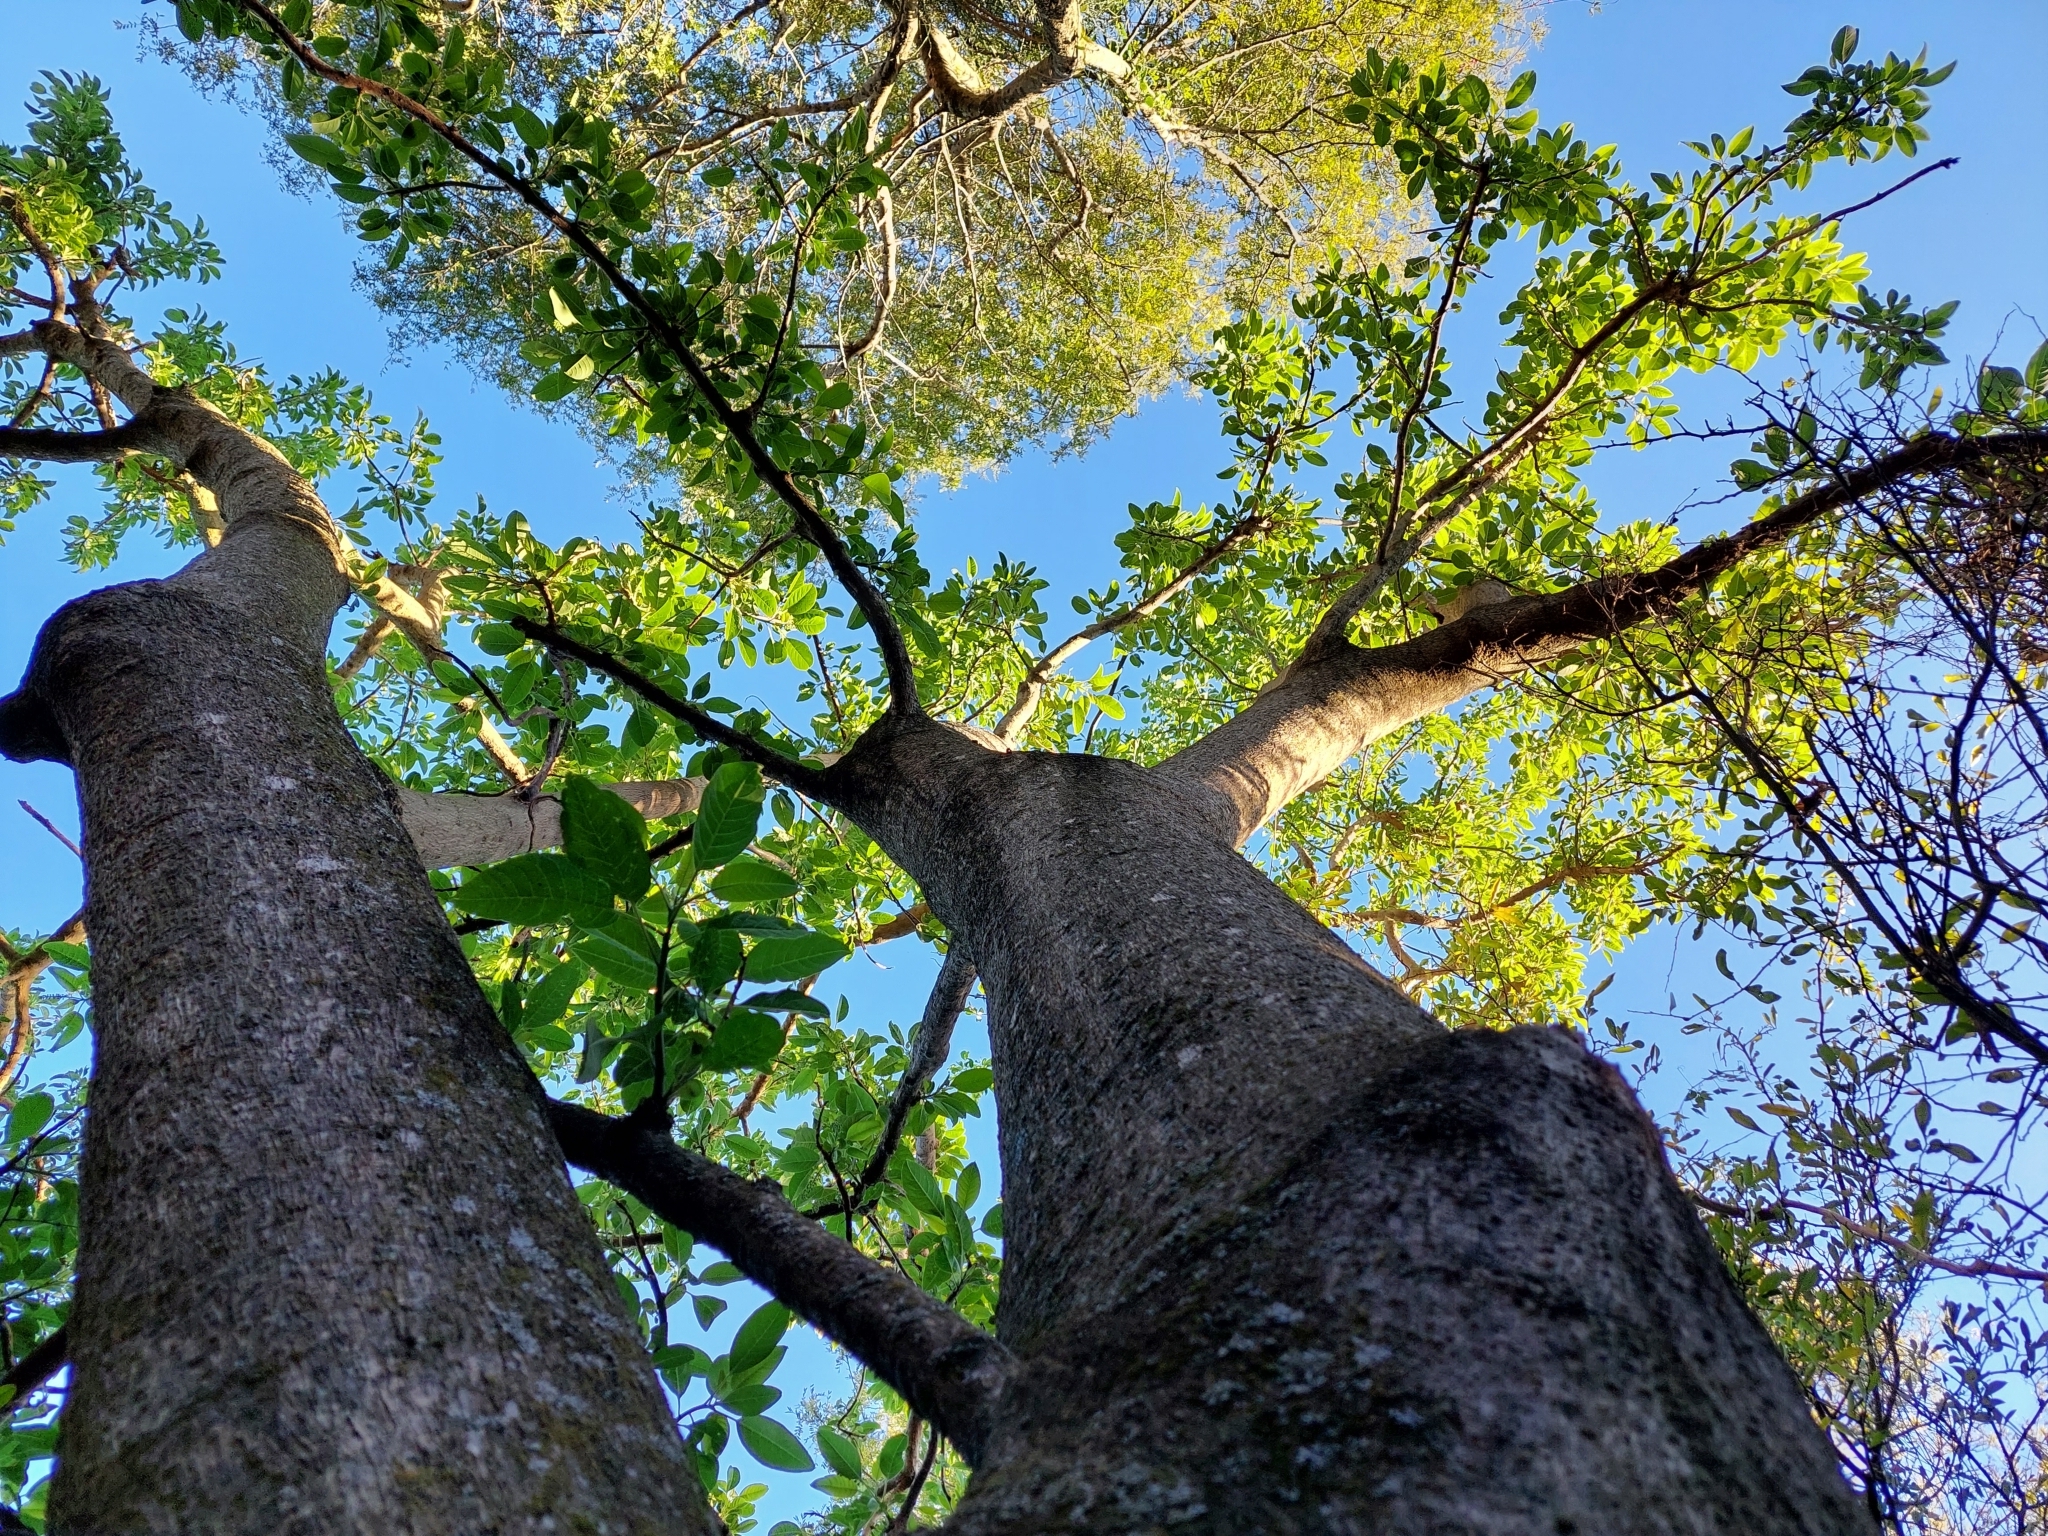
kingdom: Plantae
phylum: Tracheophyta
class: Magnoliopsida
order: Caryophyllales
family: Phytolaccaceae
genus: Phytolacca
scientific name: Phytolacca dioica
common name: Pokeweed
